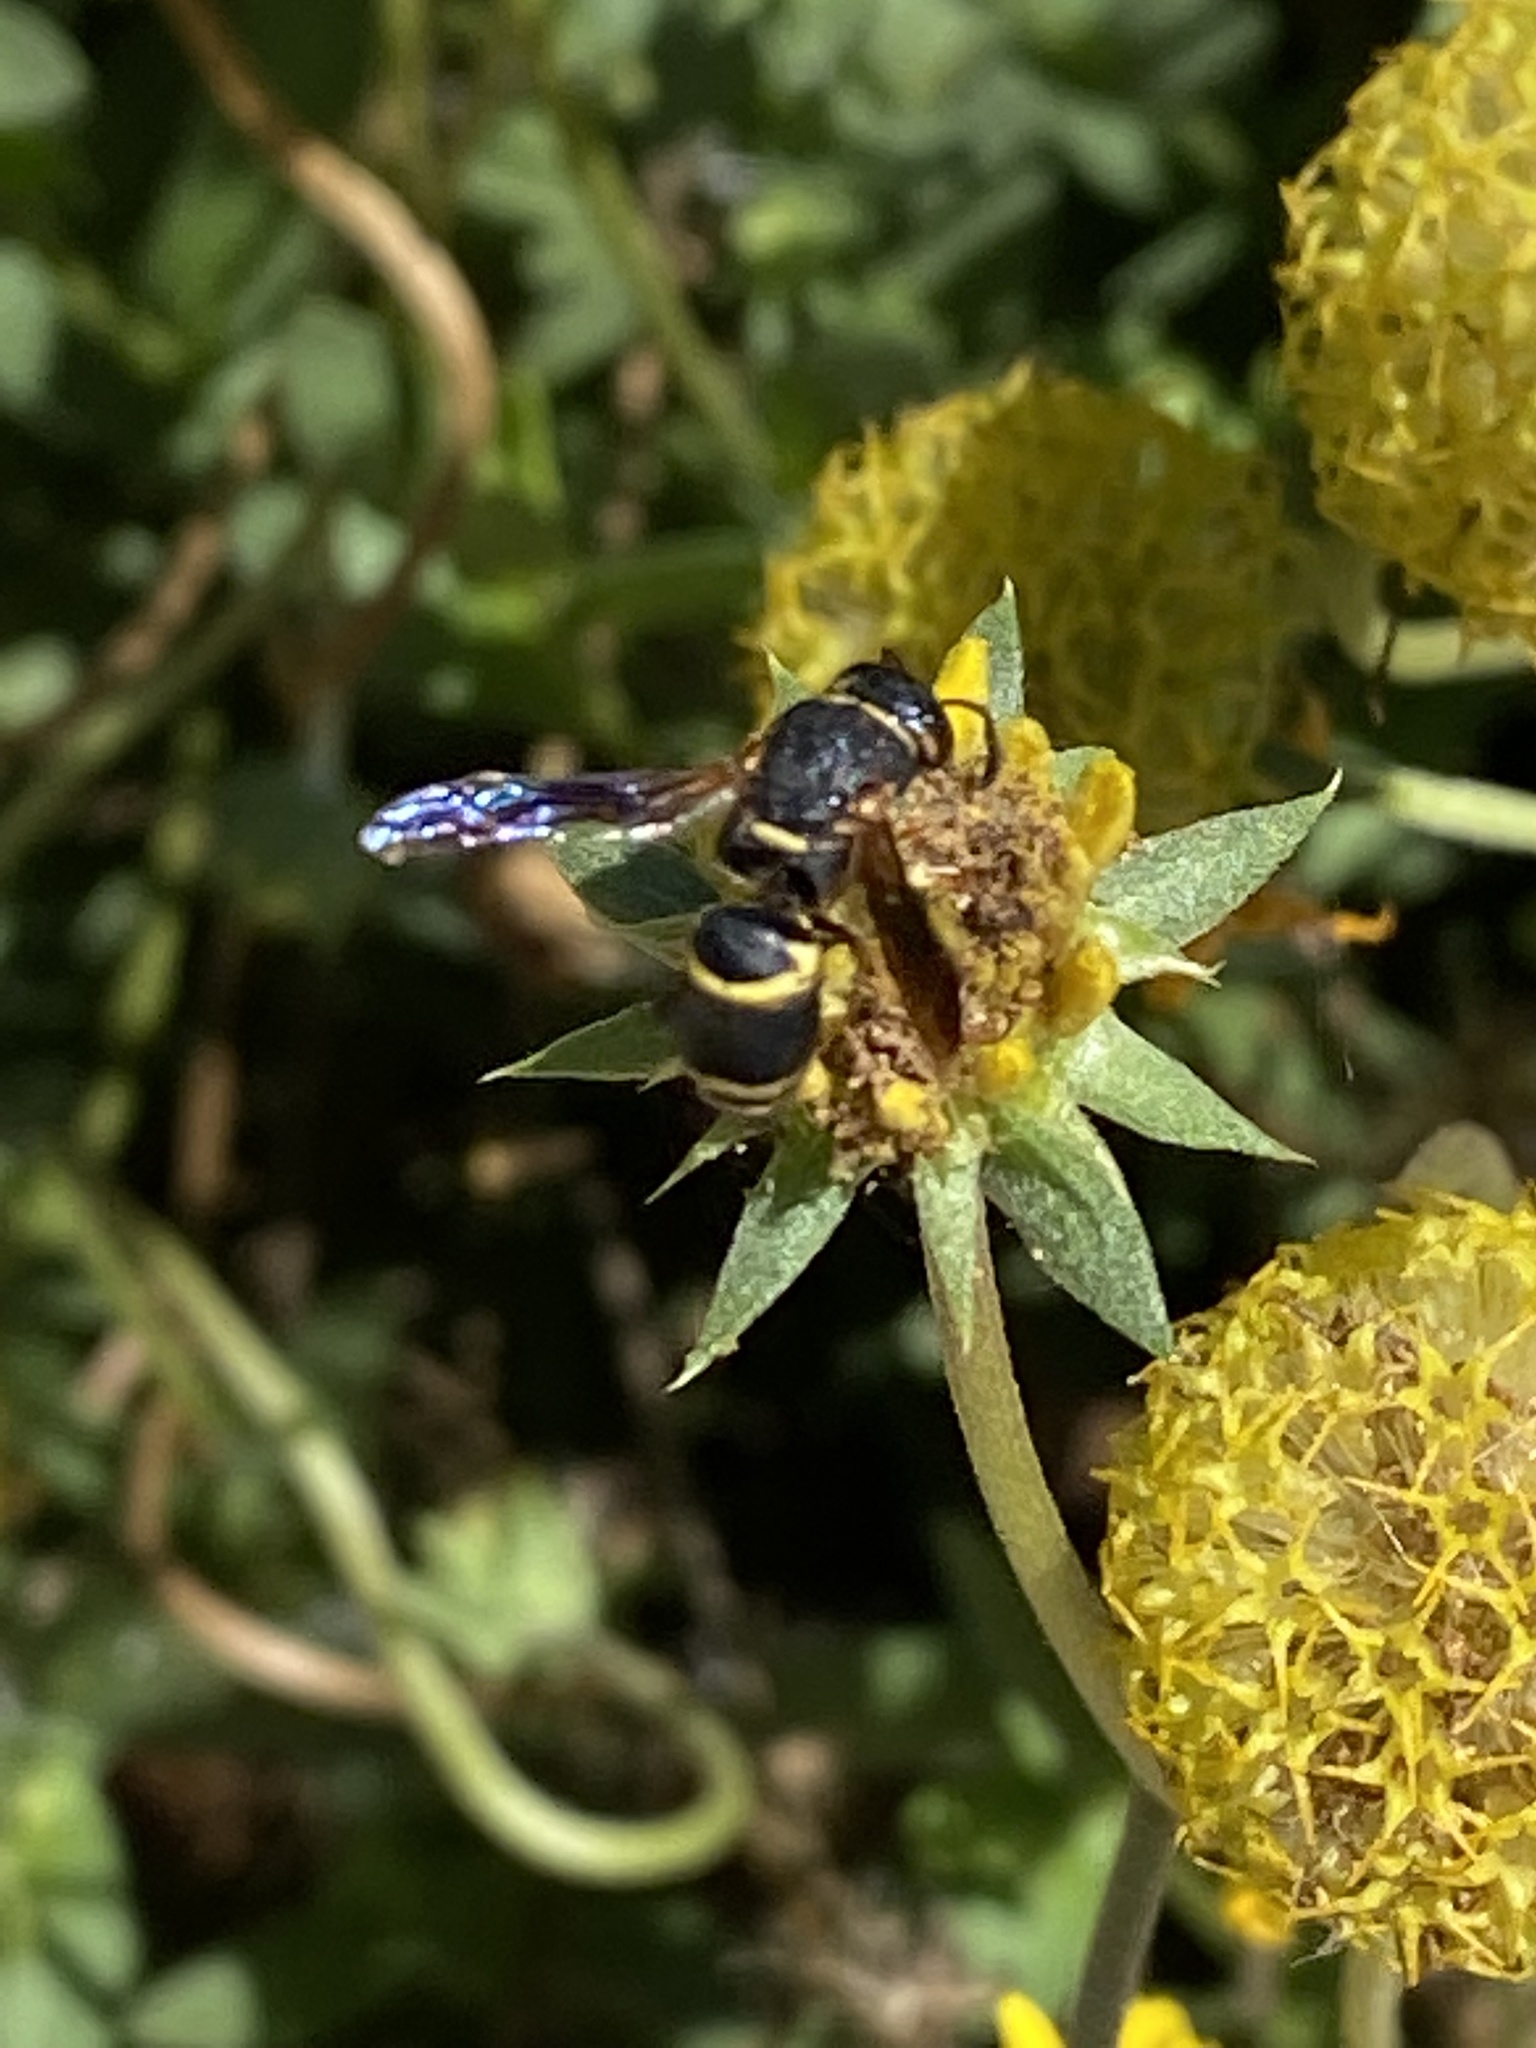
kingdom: Animalia
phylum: Arthropoda
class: Insecta
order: Hymenoptera
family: Eumenidae
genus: Euodynerus
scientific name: Euodynerus hidalgo
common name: Wasp
